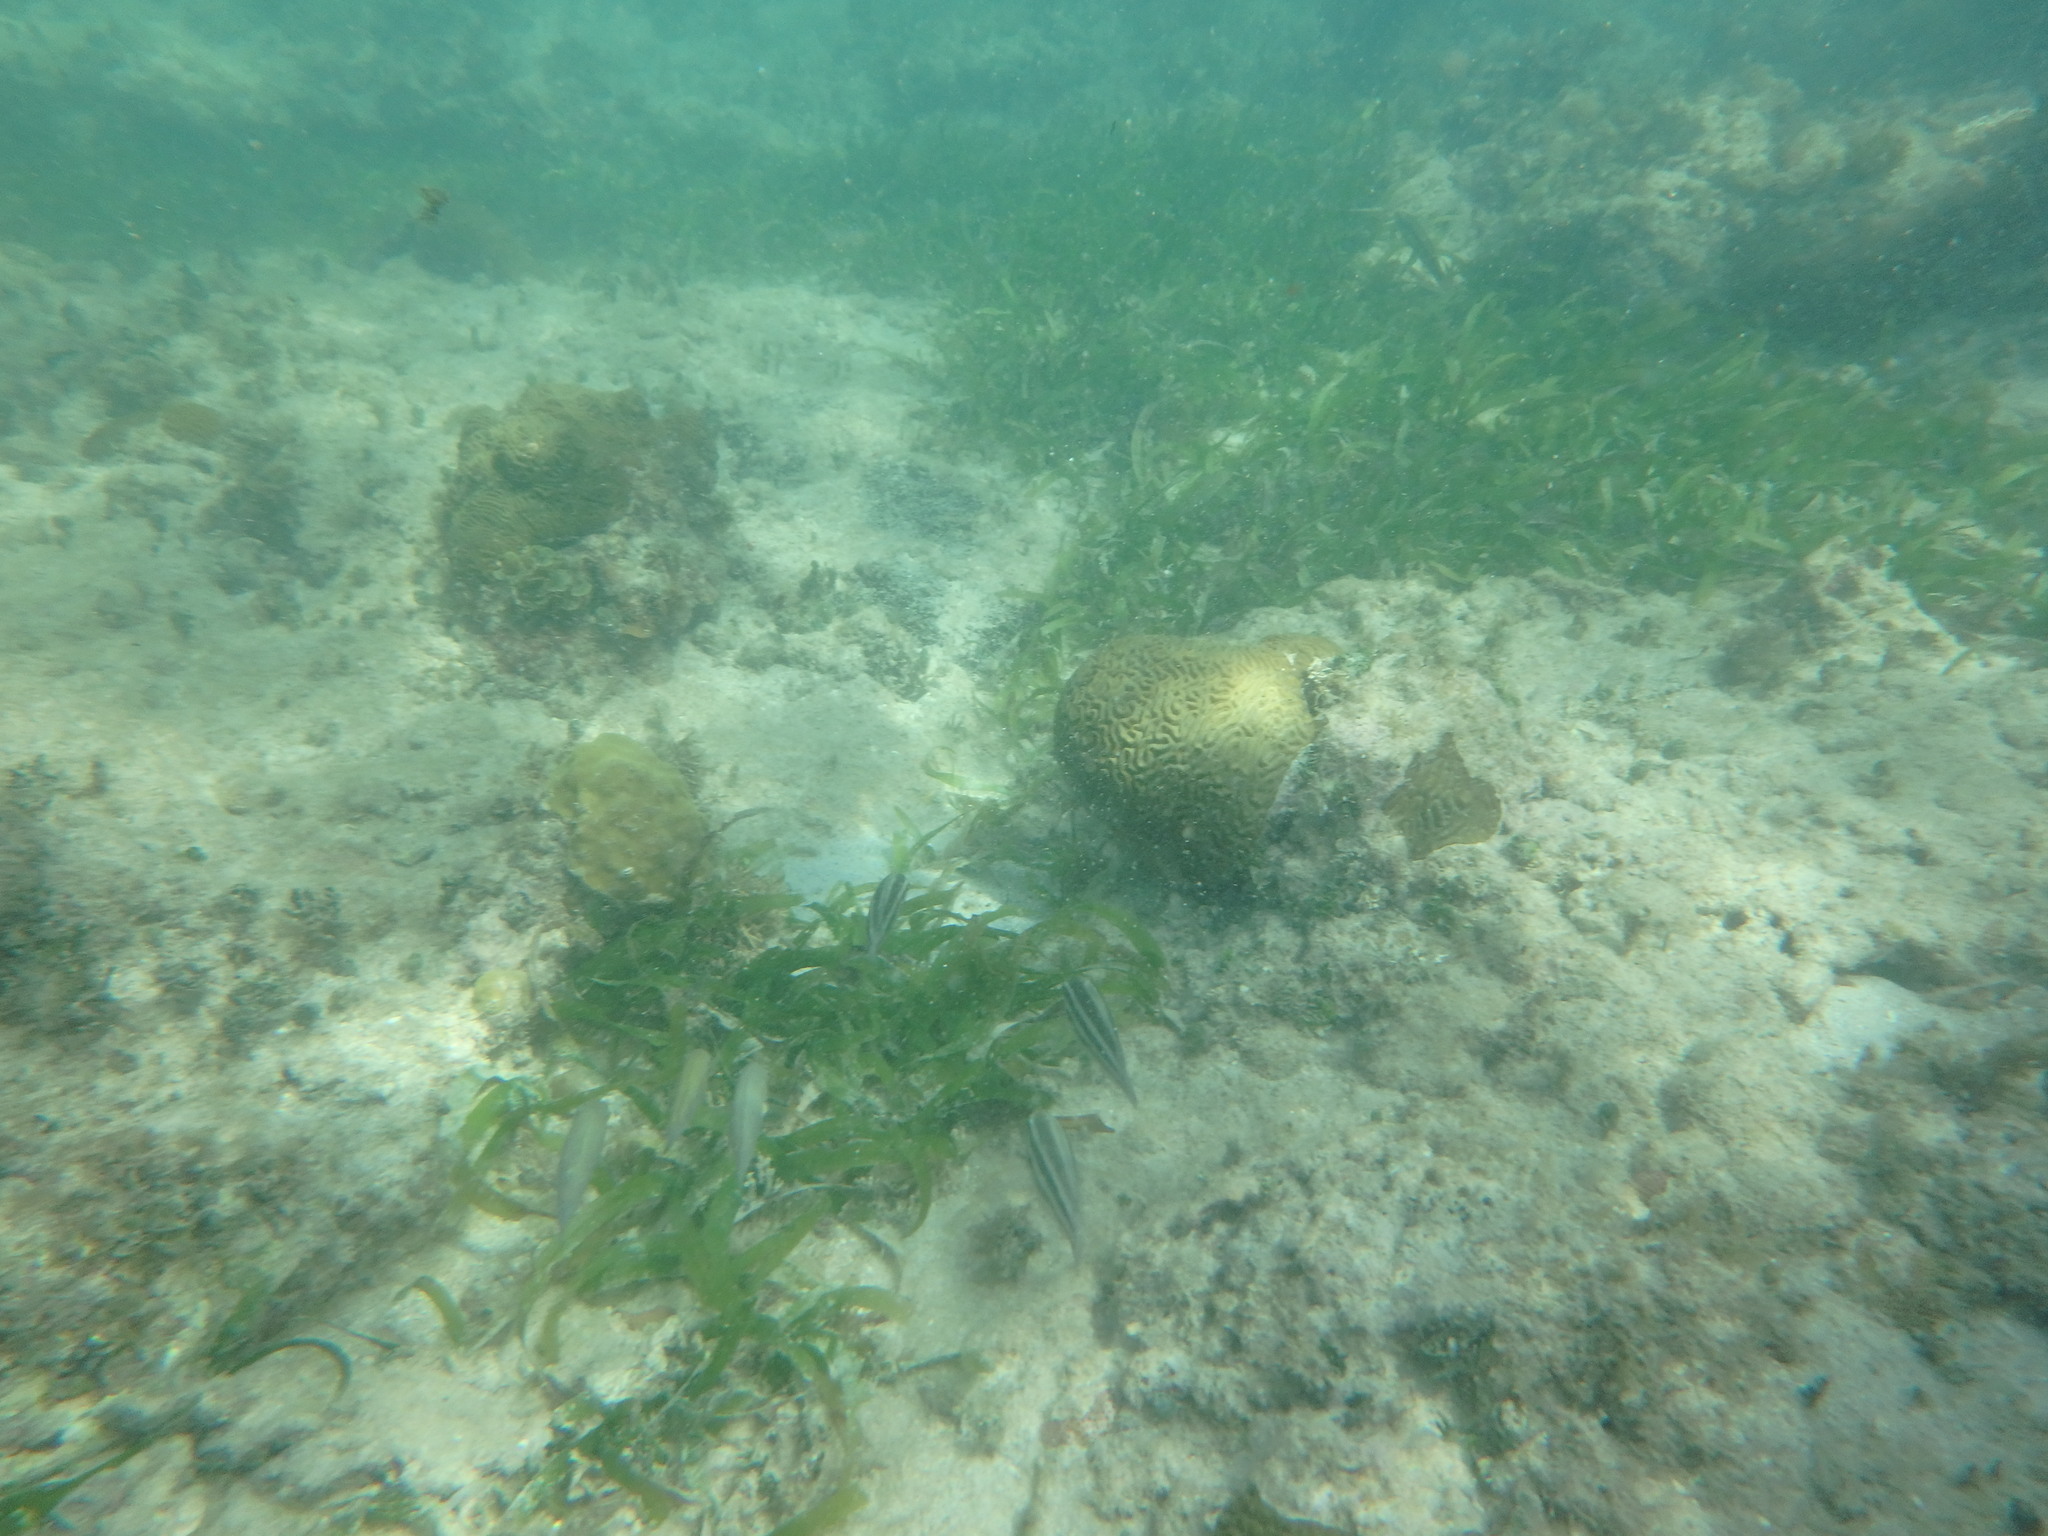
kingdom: Animalia
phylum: Chordata
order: Perciformes
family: Scaridae
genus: Scarus
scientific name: Scarus
